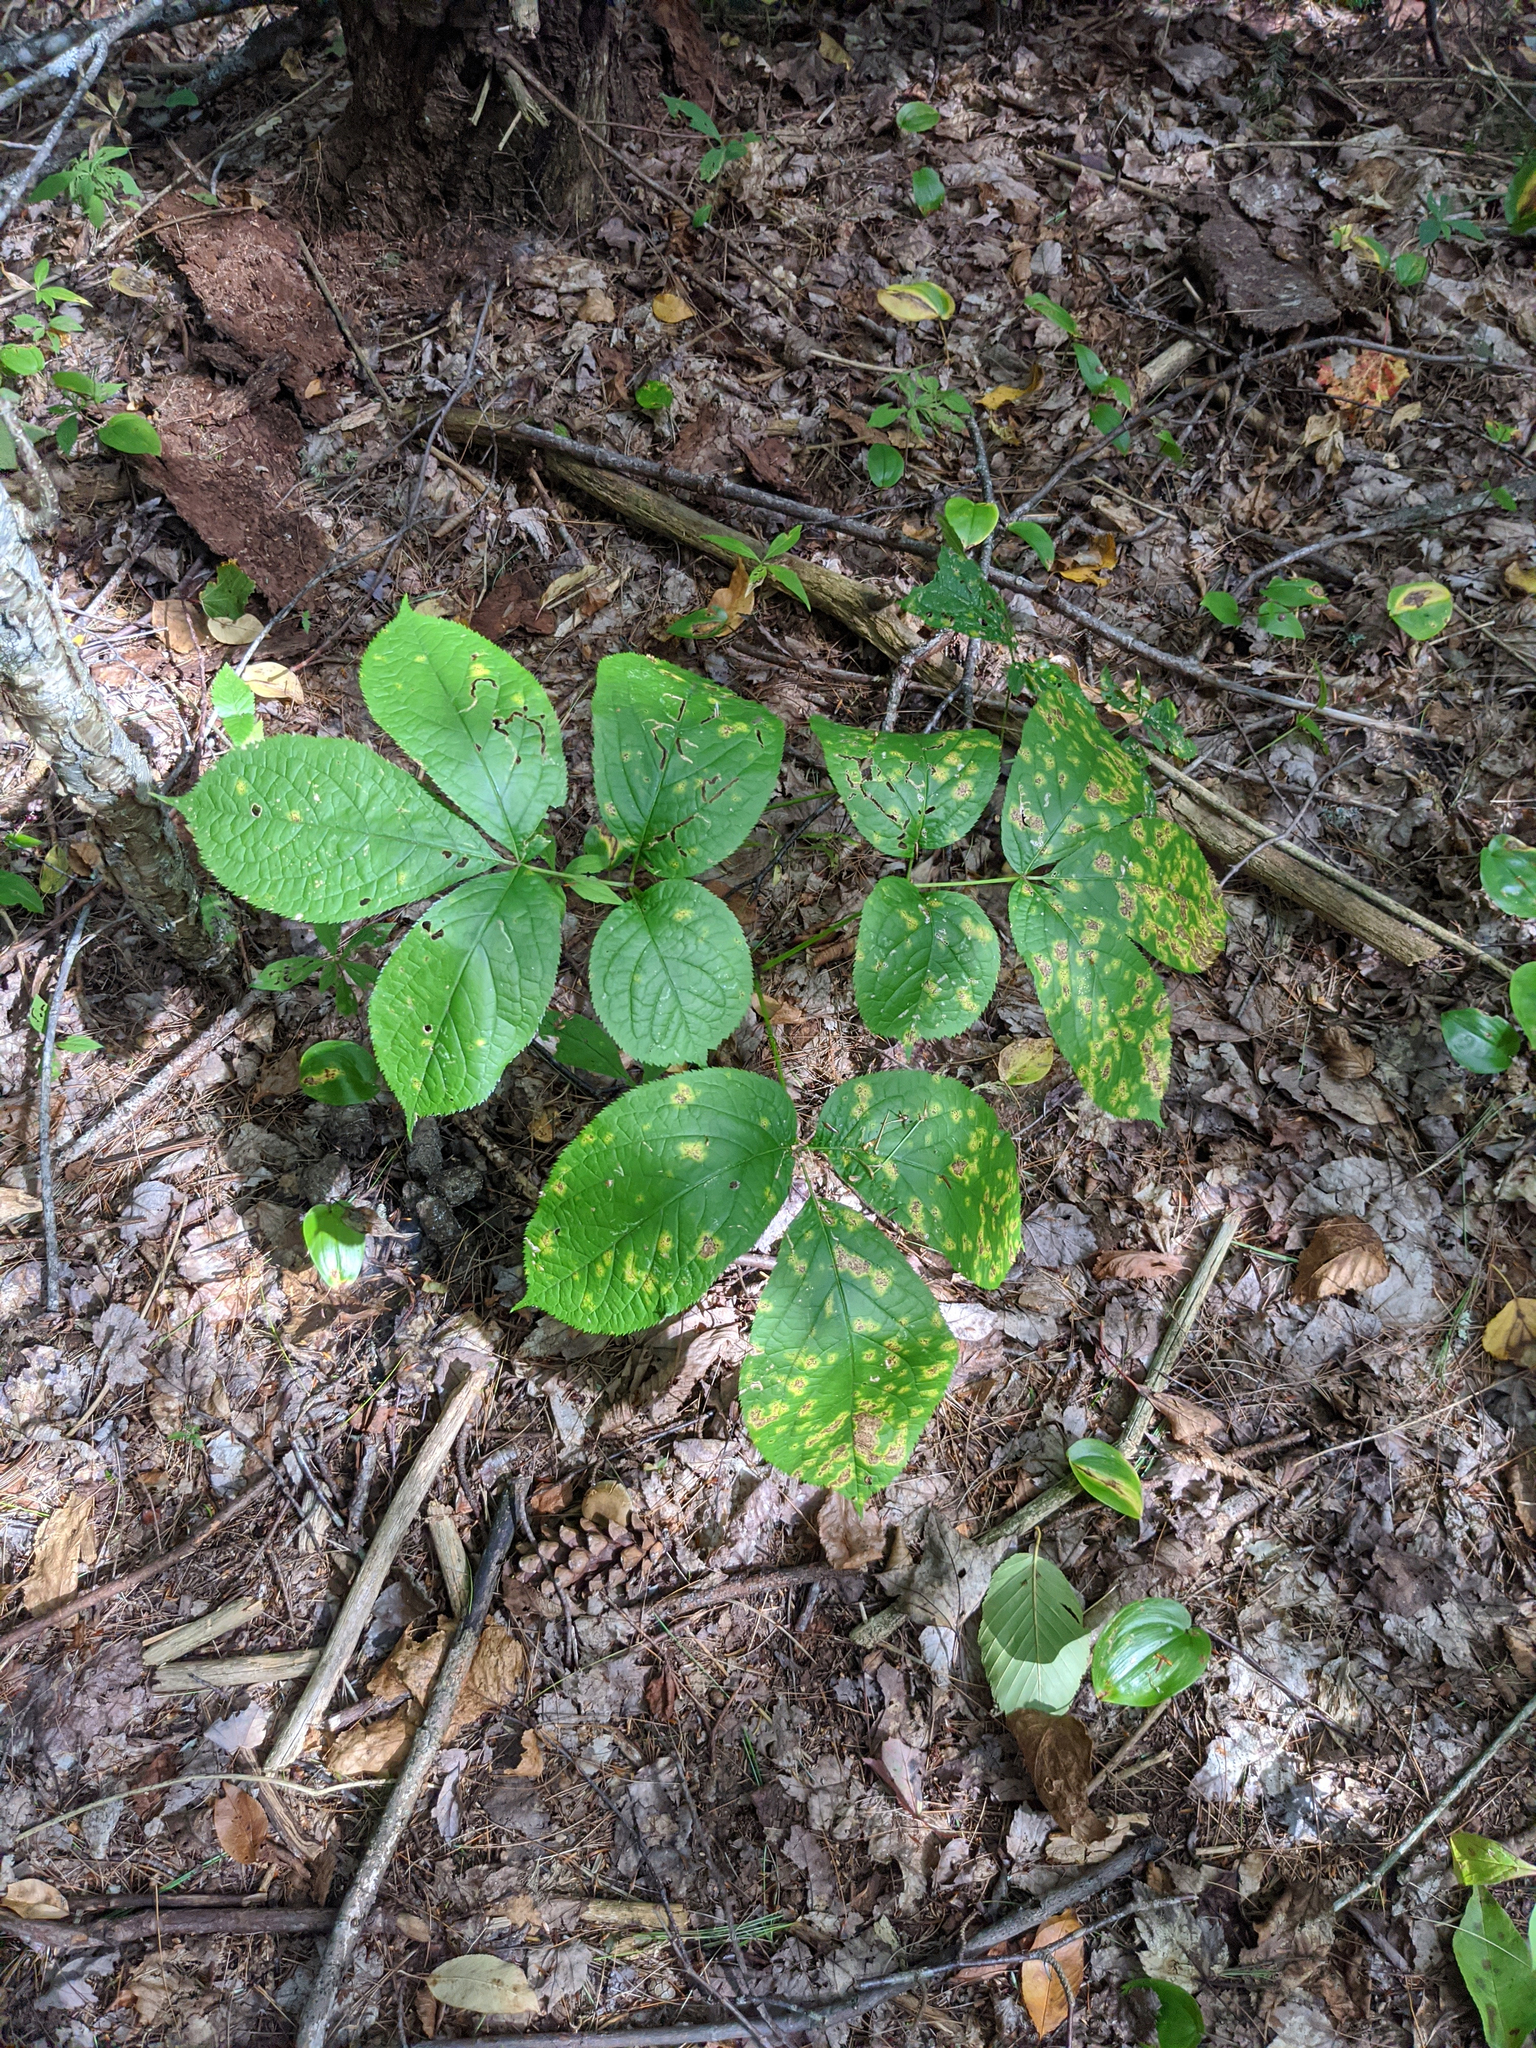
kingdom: Plantae
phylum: Tracheophyta
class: Magnoliopsida
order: Apiales
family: Araliaceae
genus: Aralia
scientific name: Aralia nudicaulis
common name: Wild sarsaparilla
